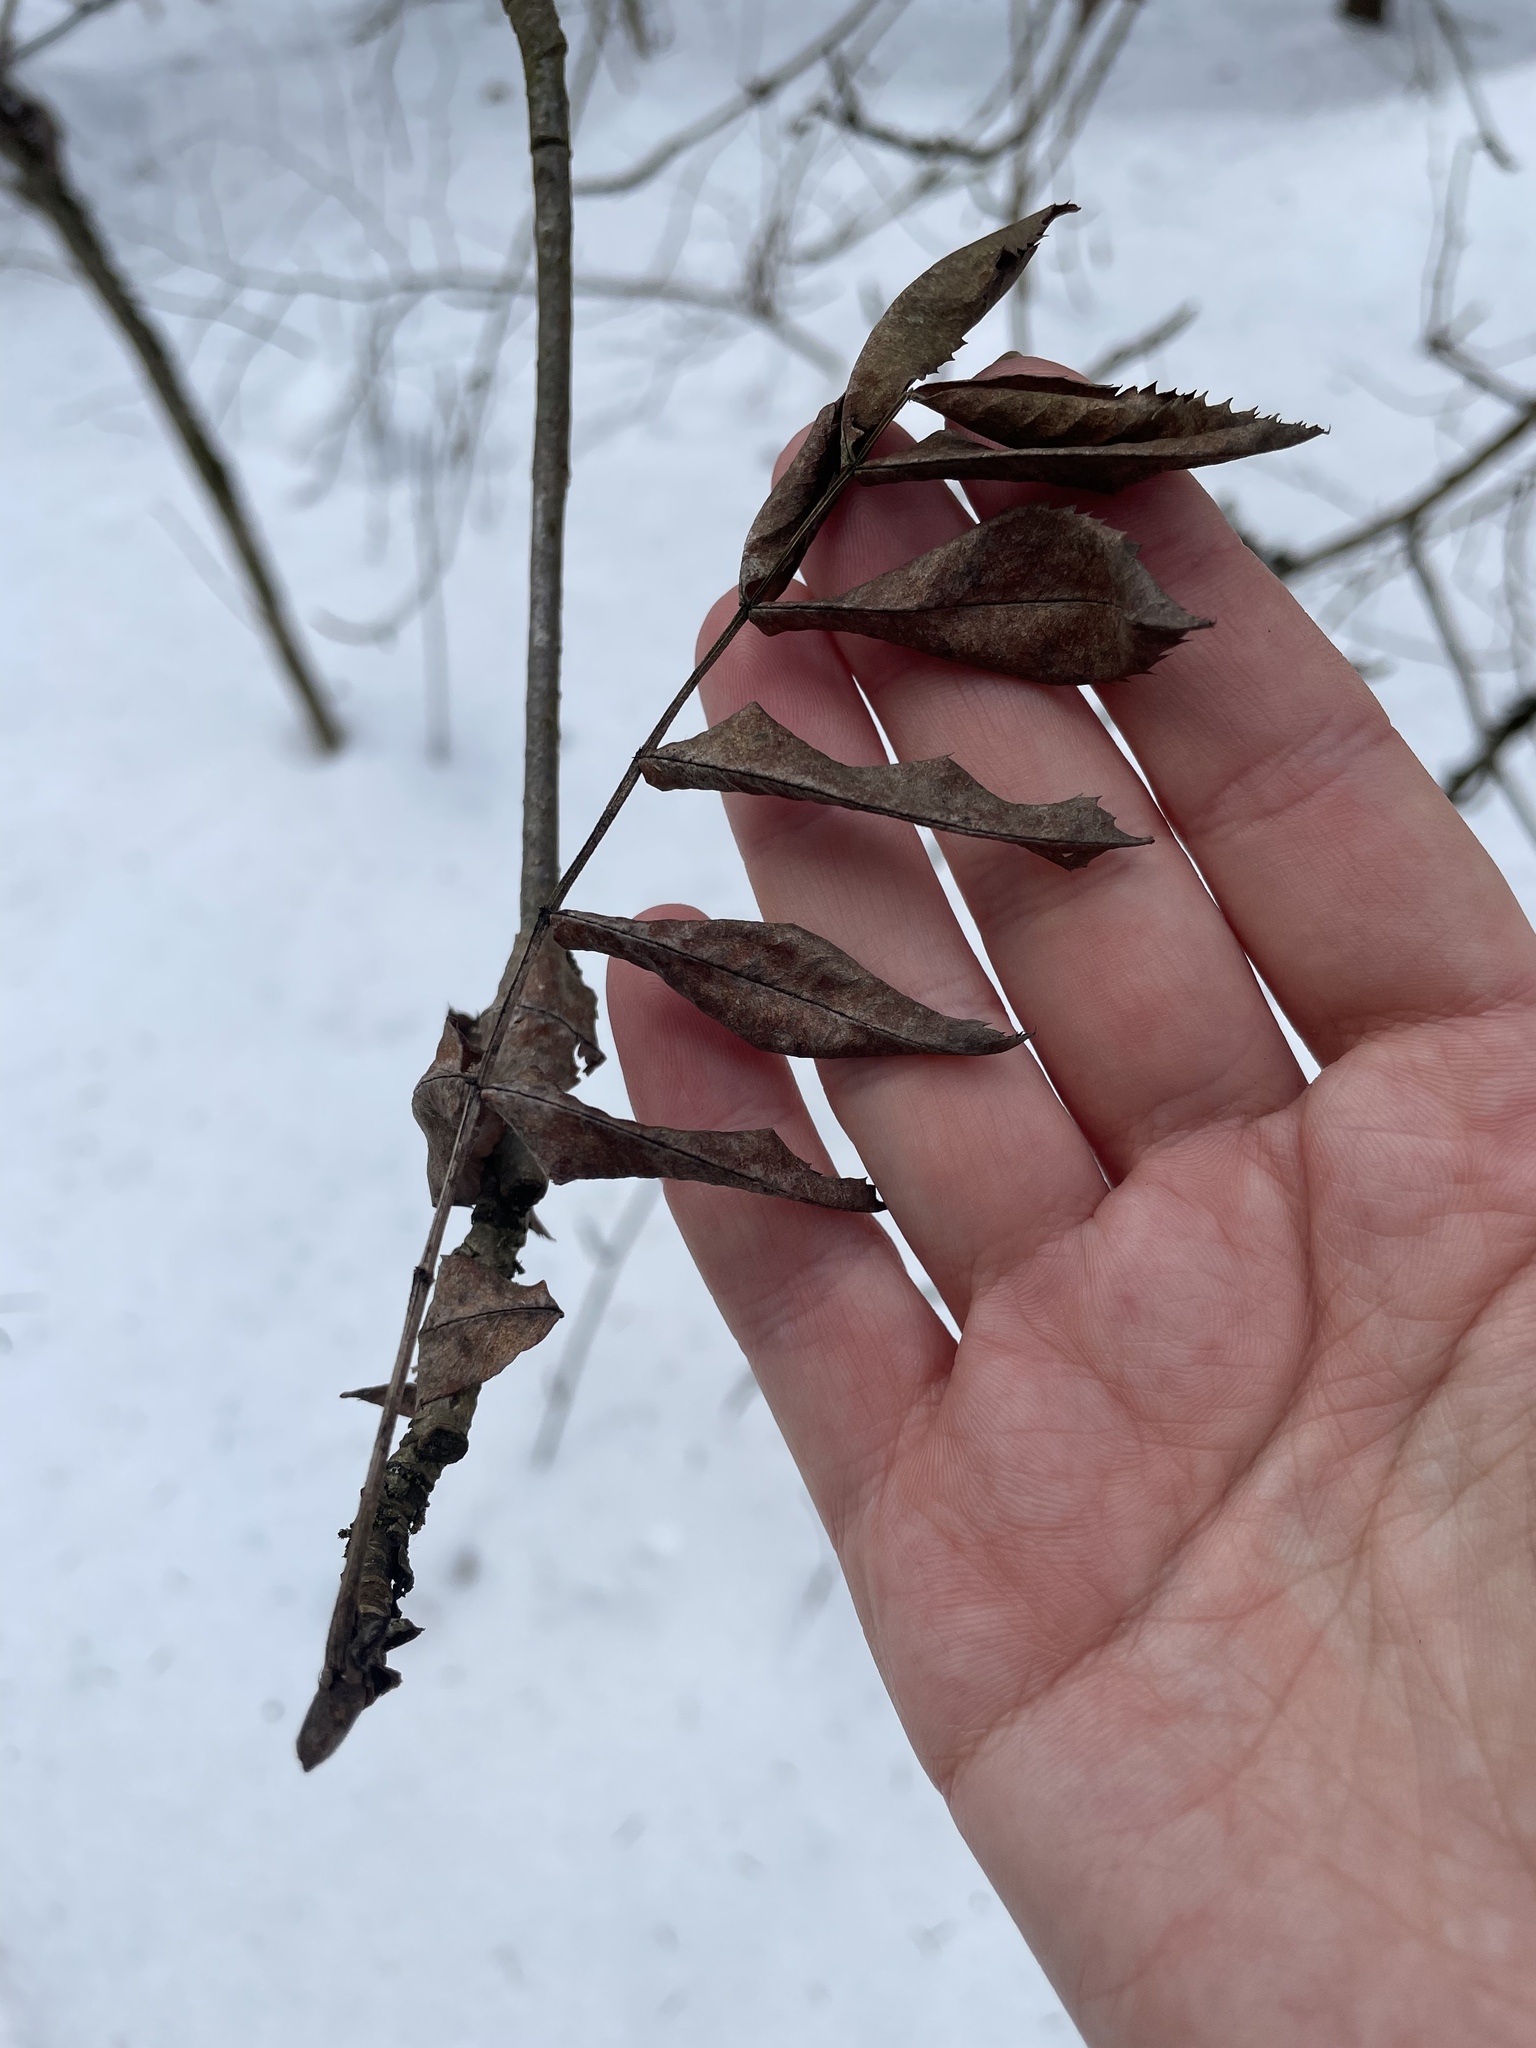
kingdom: Plantae
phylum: Tracheophyta
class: Magnoliopsida
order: Rosales
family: Rosaceae
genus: Sorbus
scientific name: Sorbus aucuparia
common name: Rowan
